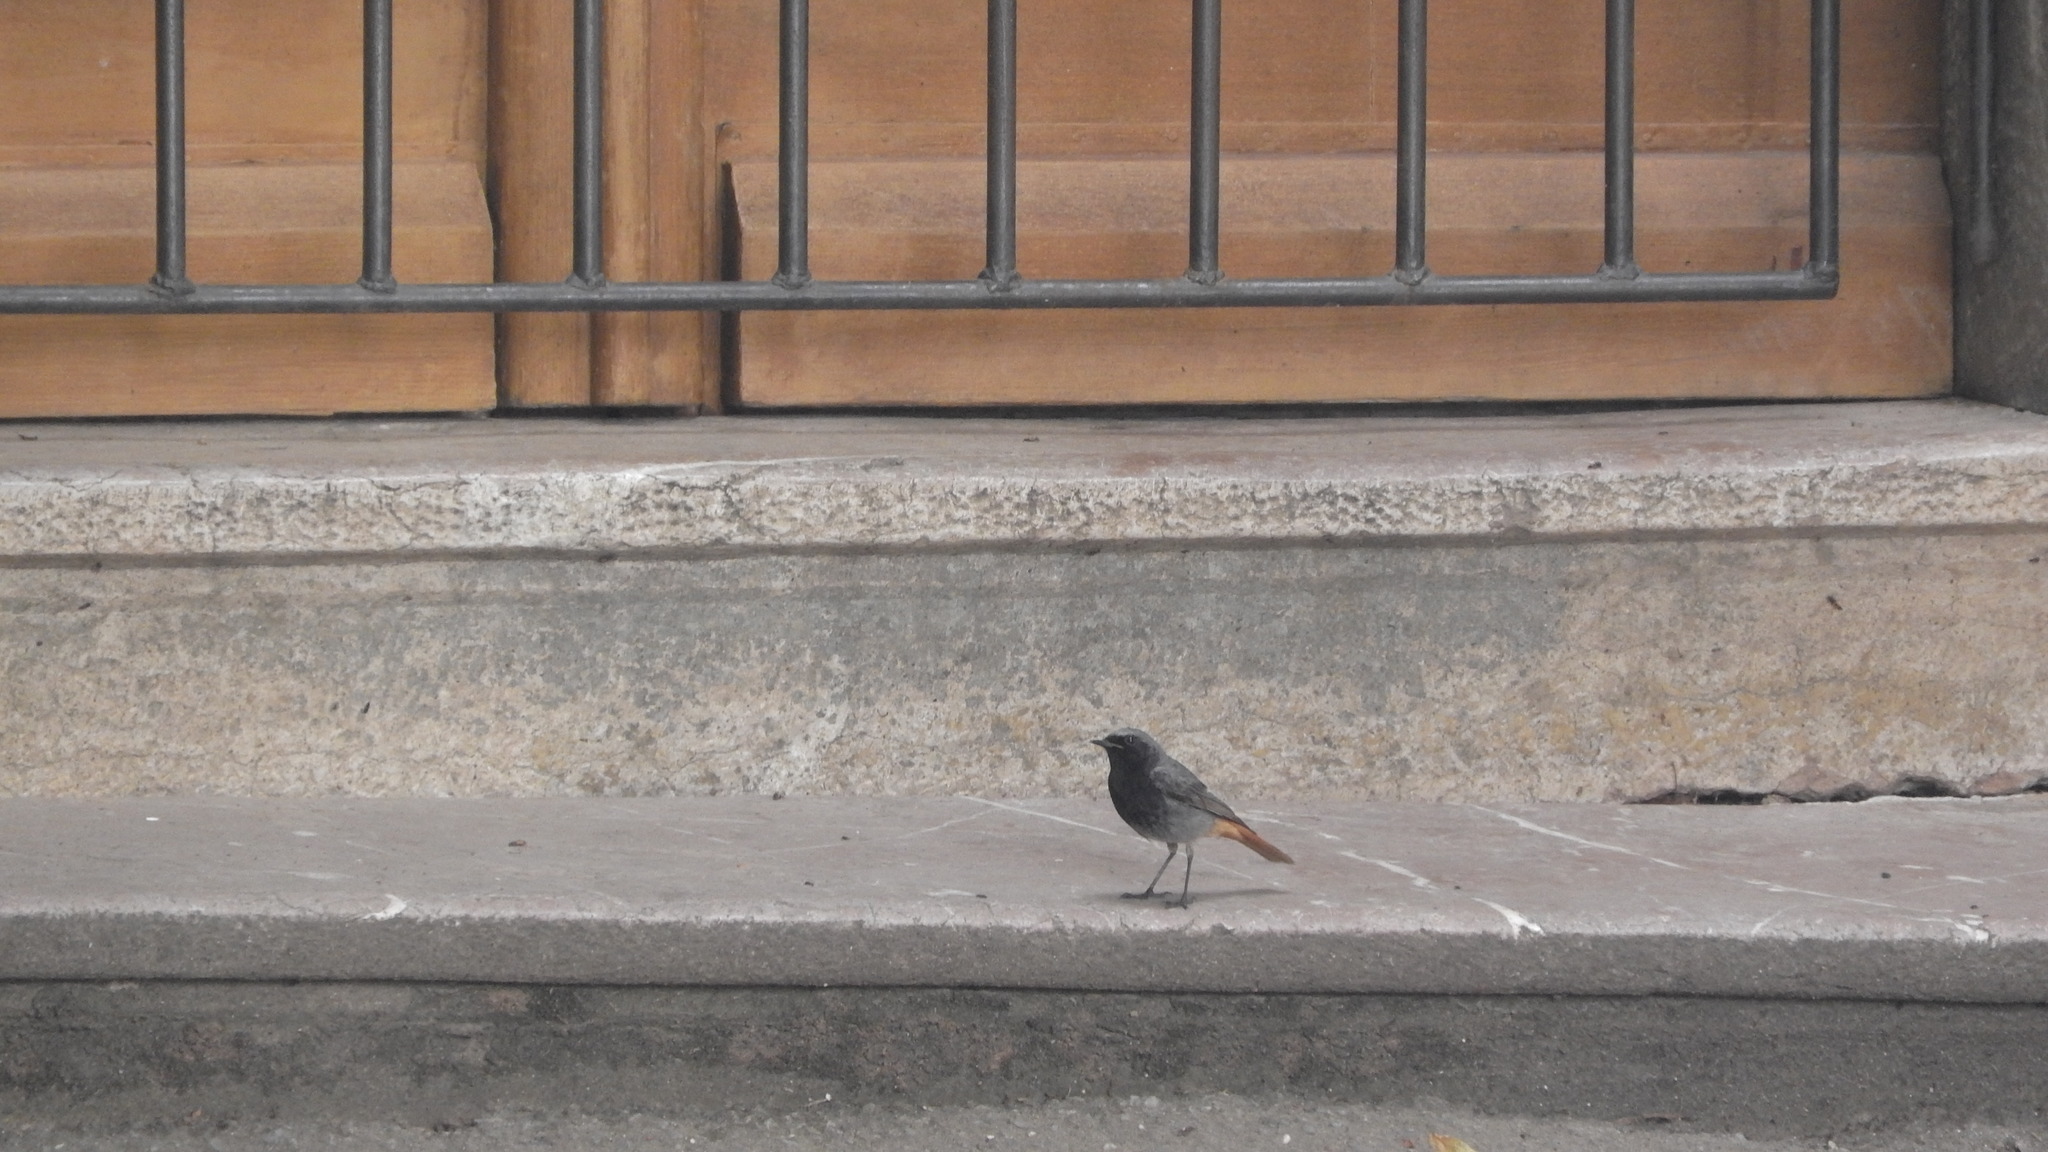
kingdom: Animalia
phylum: Chordata
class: Aves
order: Passeriformes
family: Muscicapidae
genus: Phoenicurus
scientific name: Phoenicurus ochruros
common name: Black redstart
